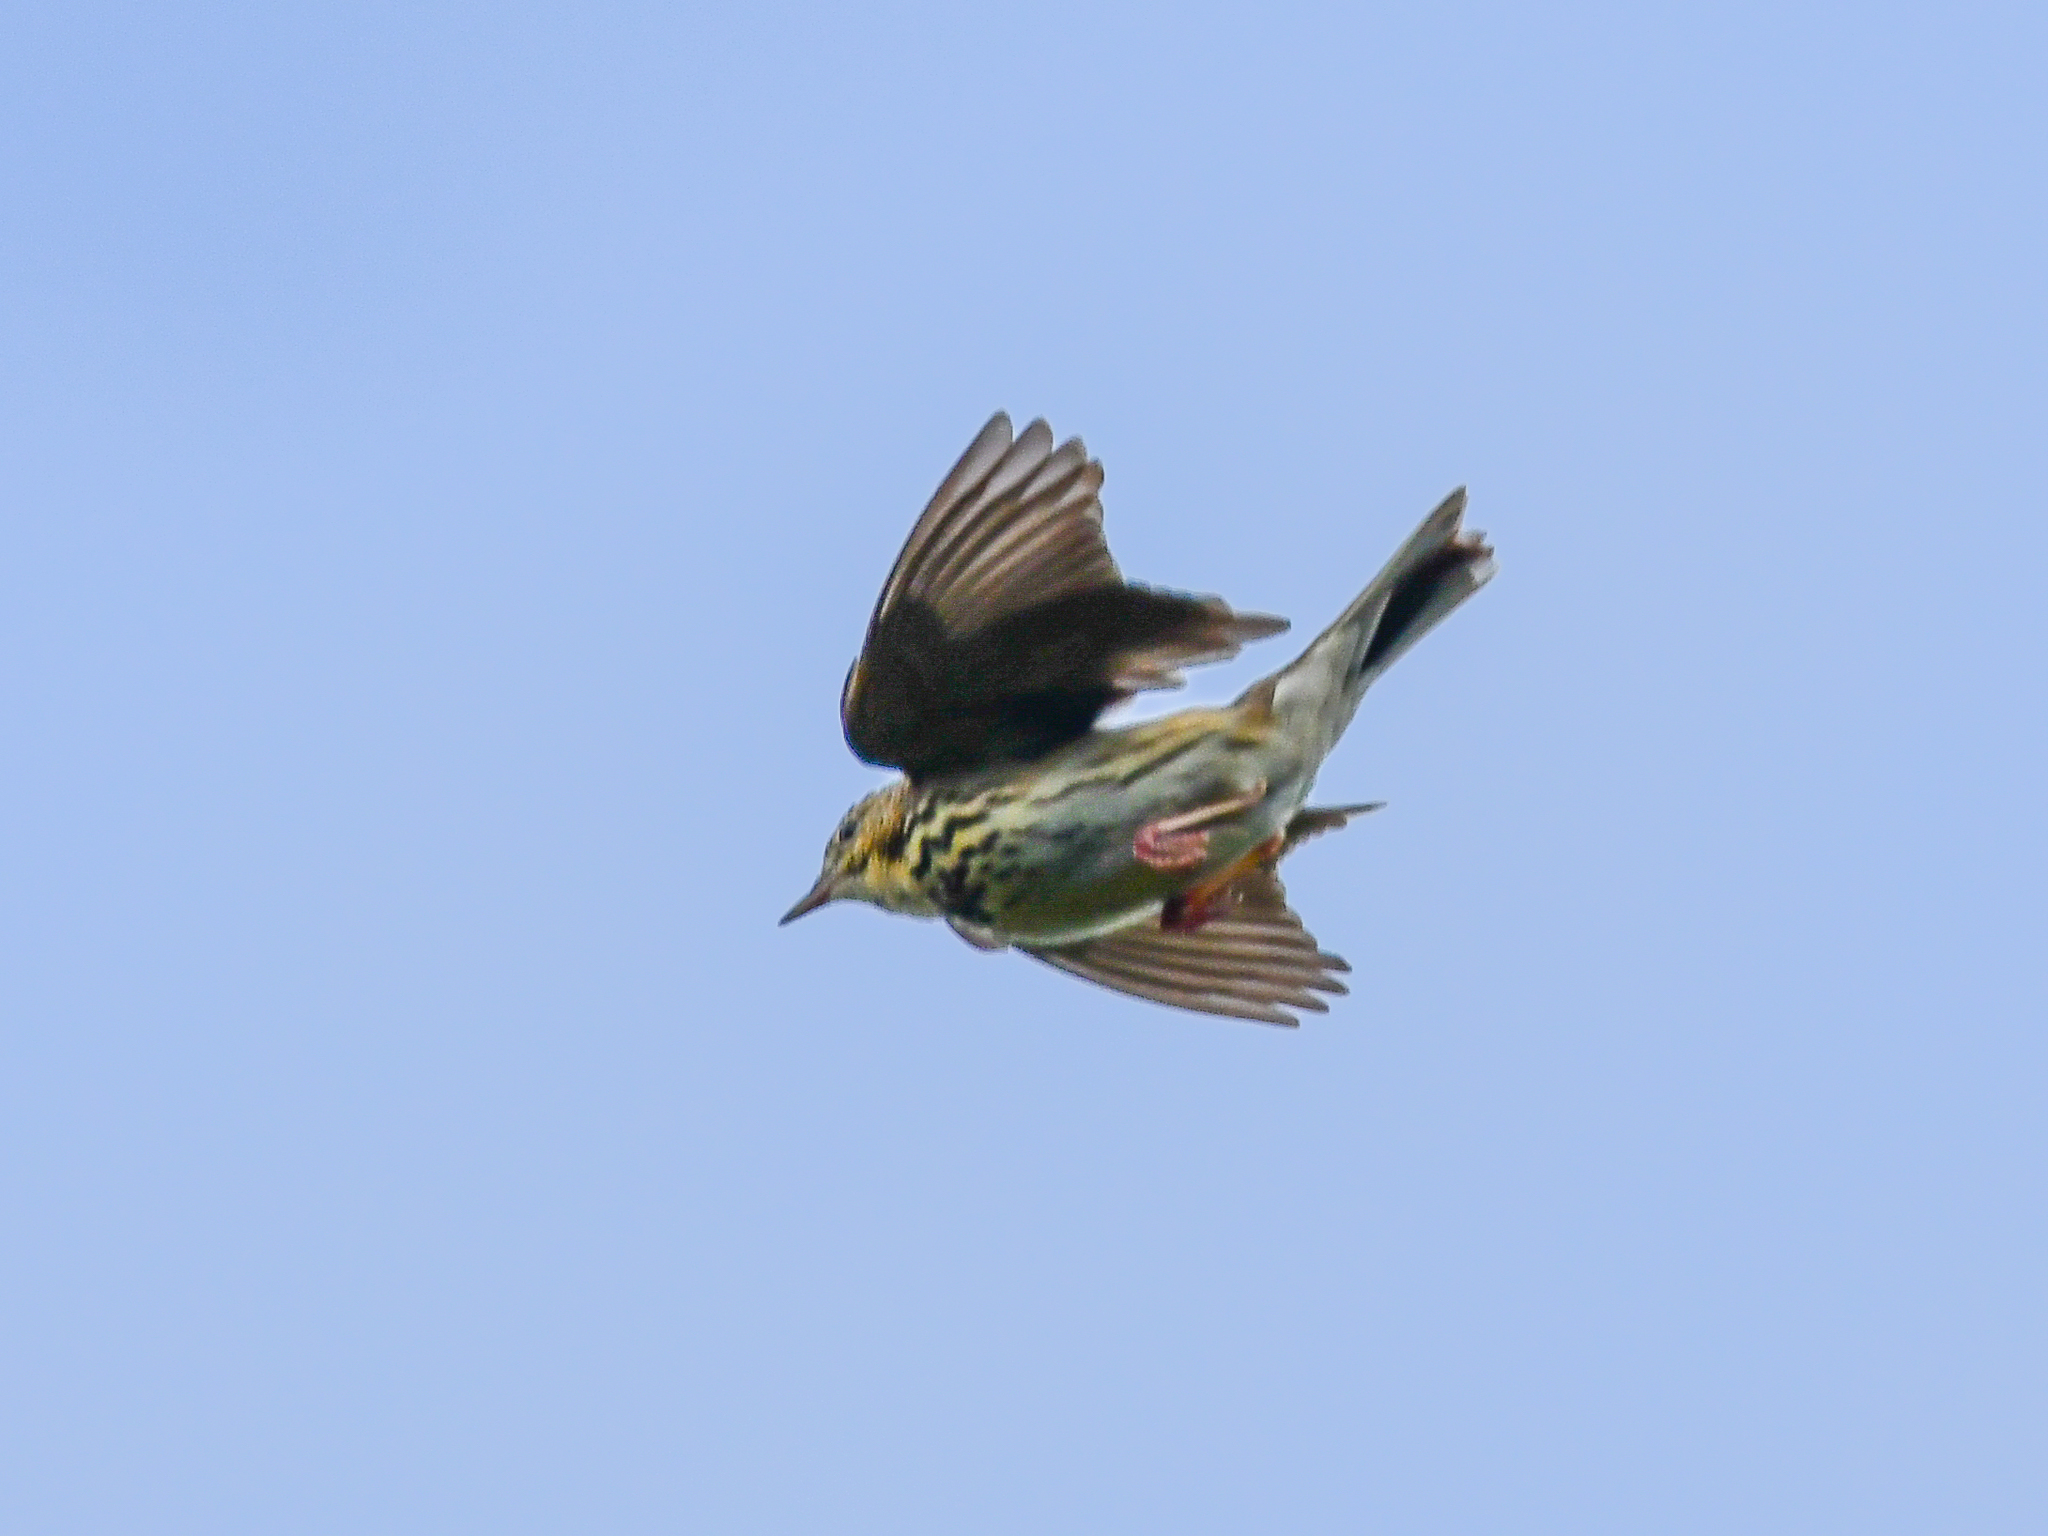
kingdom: Animalia
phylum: Chordata
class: Aves
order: Passeriformes
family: Motacillidae
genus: Anthus
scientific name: Anthus trivialis
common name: Tree pipit
